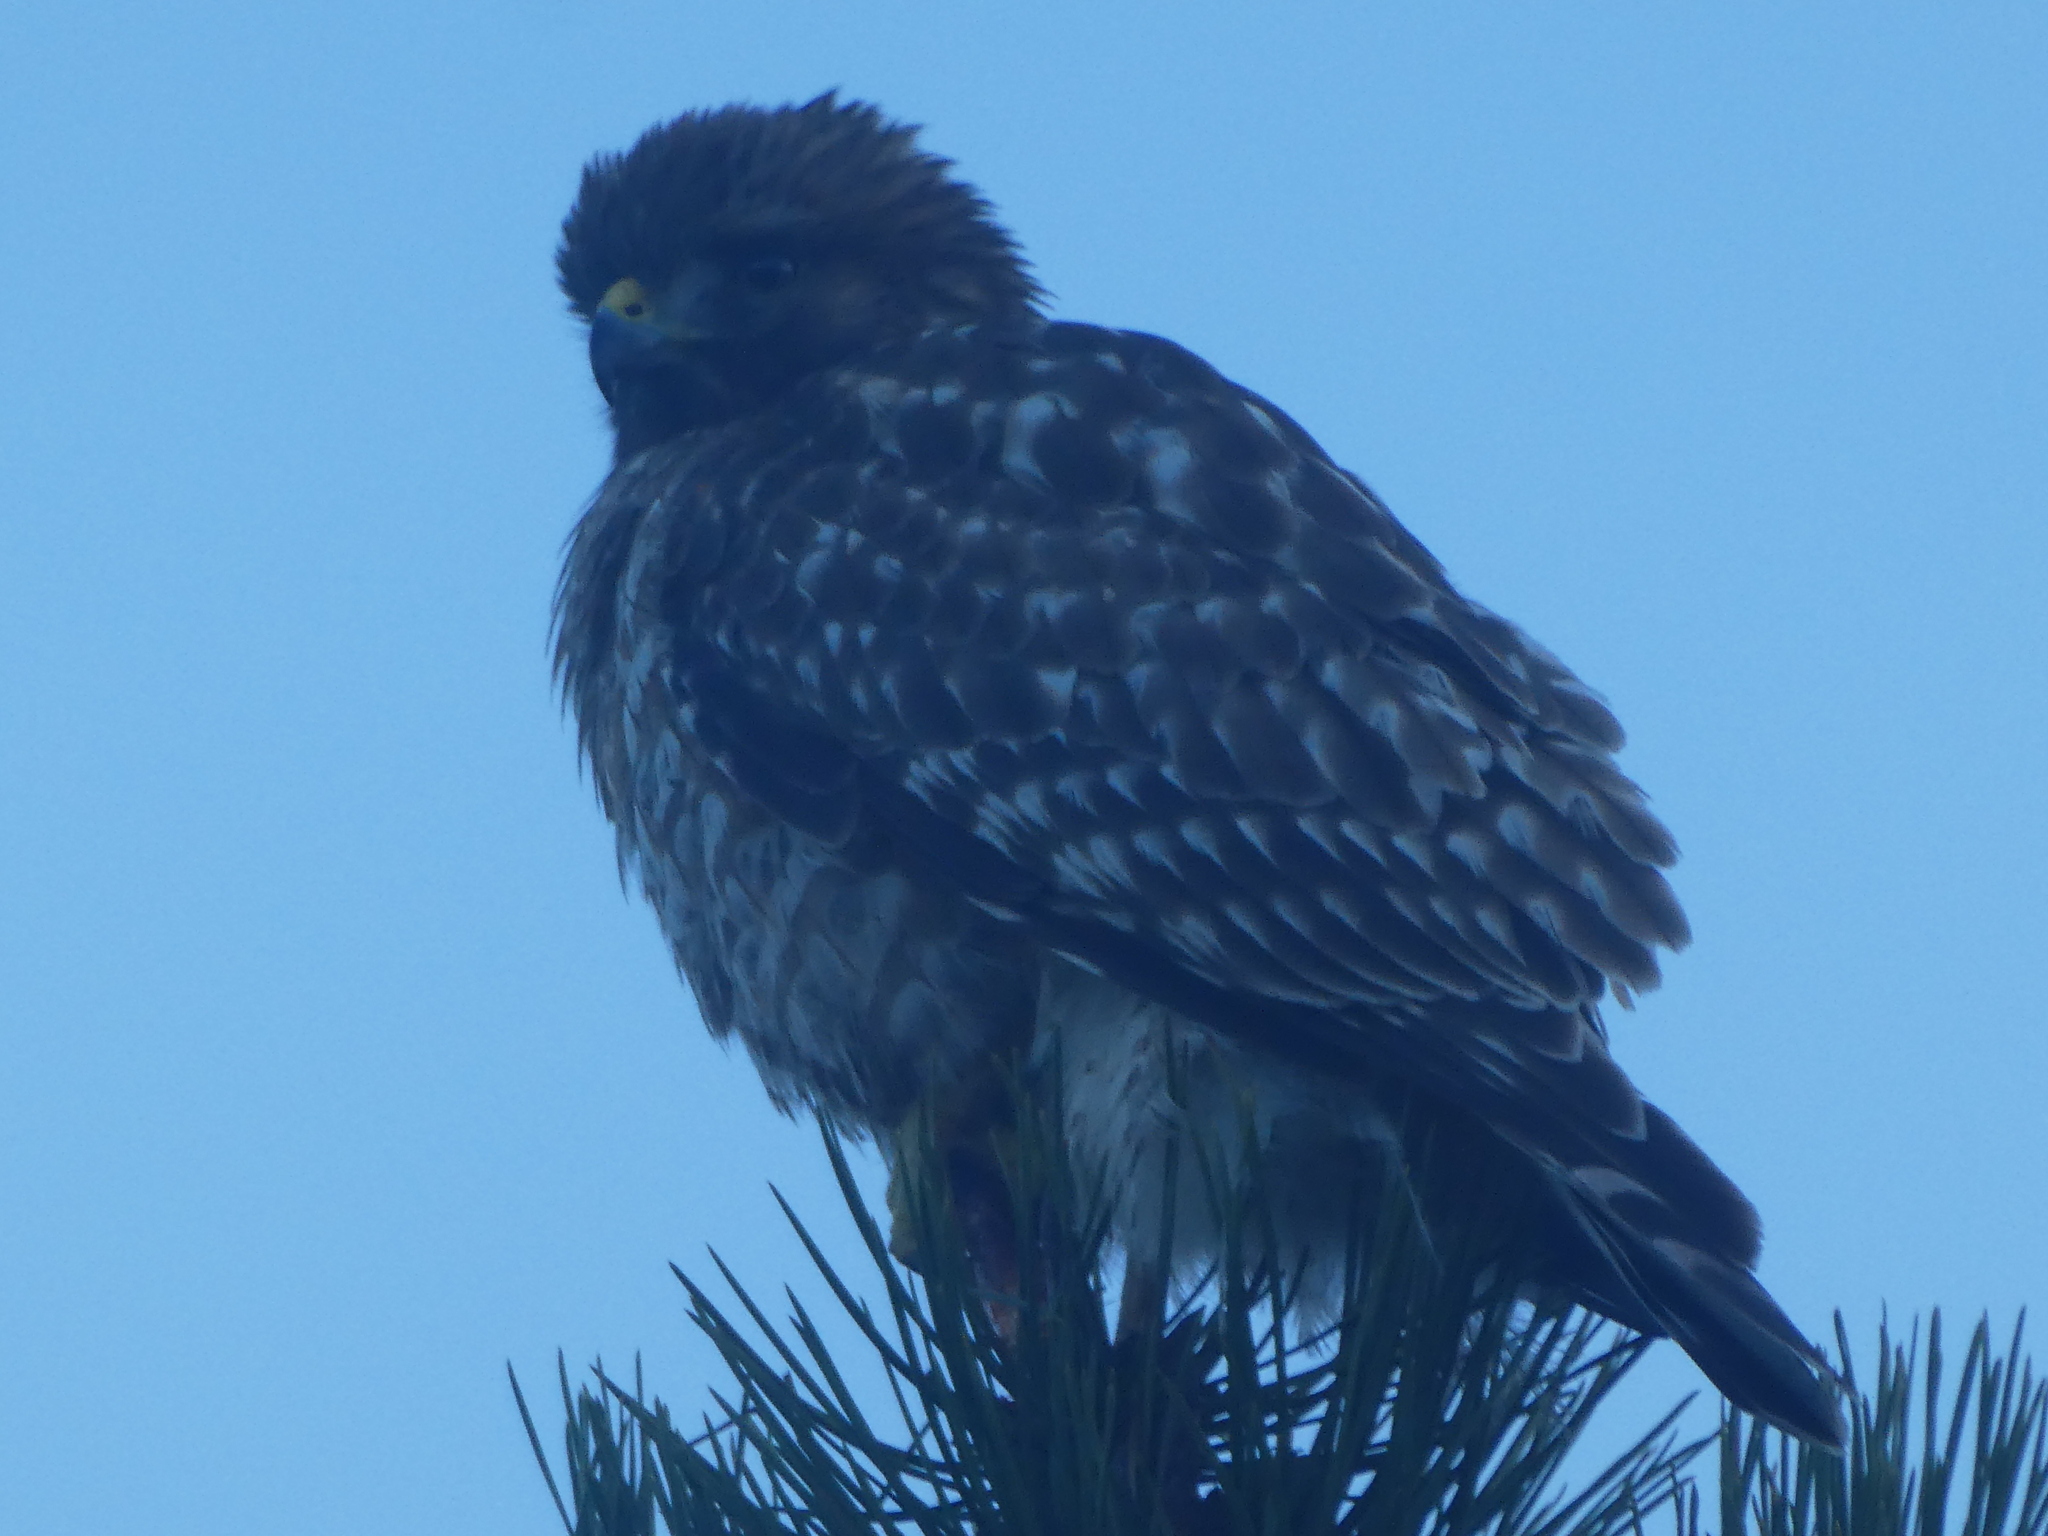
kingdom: Animalia
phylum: Chordata
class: Aves
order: Accipitriformes
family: Accipitridae
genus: Buteo
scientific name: Buteo lineatus
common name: Red-shouldered hawk
